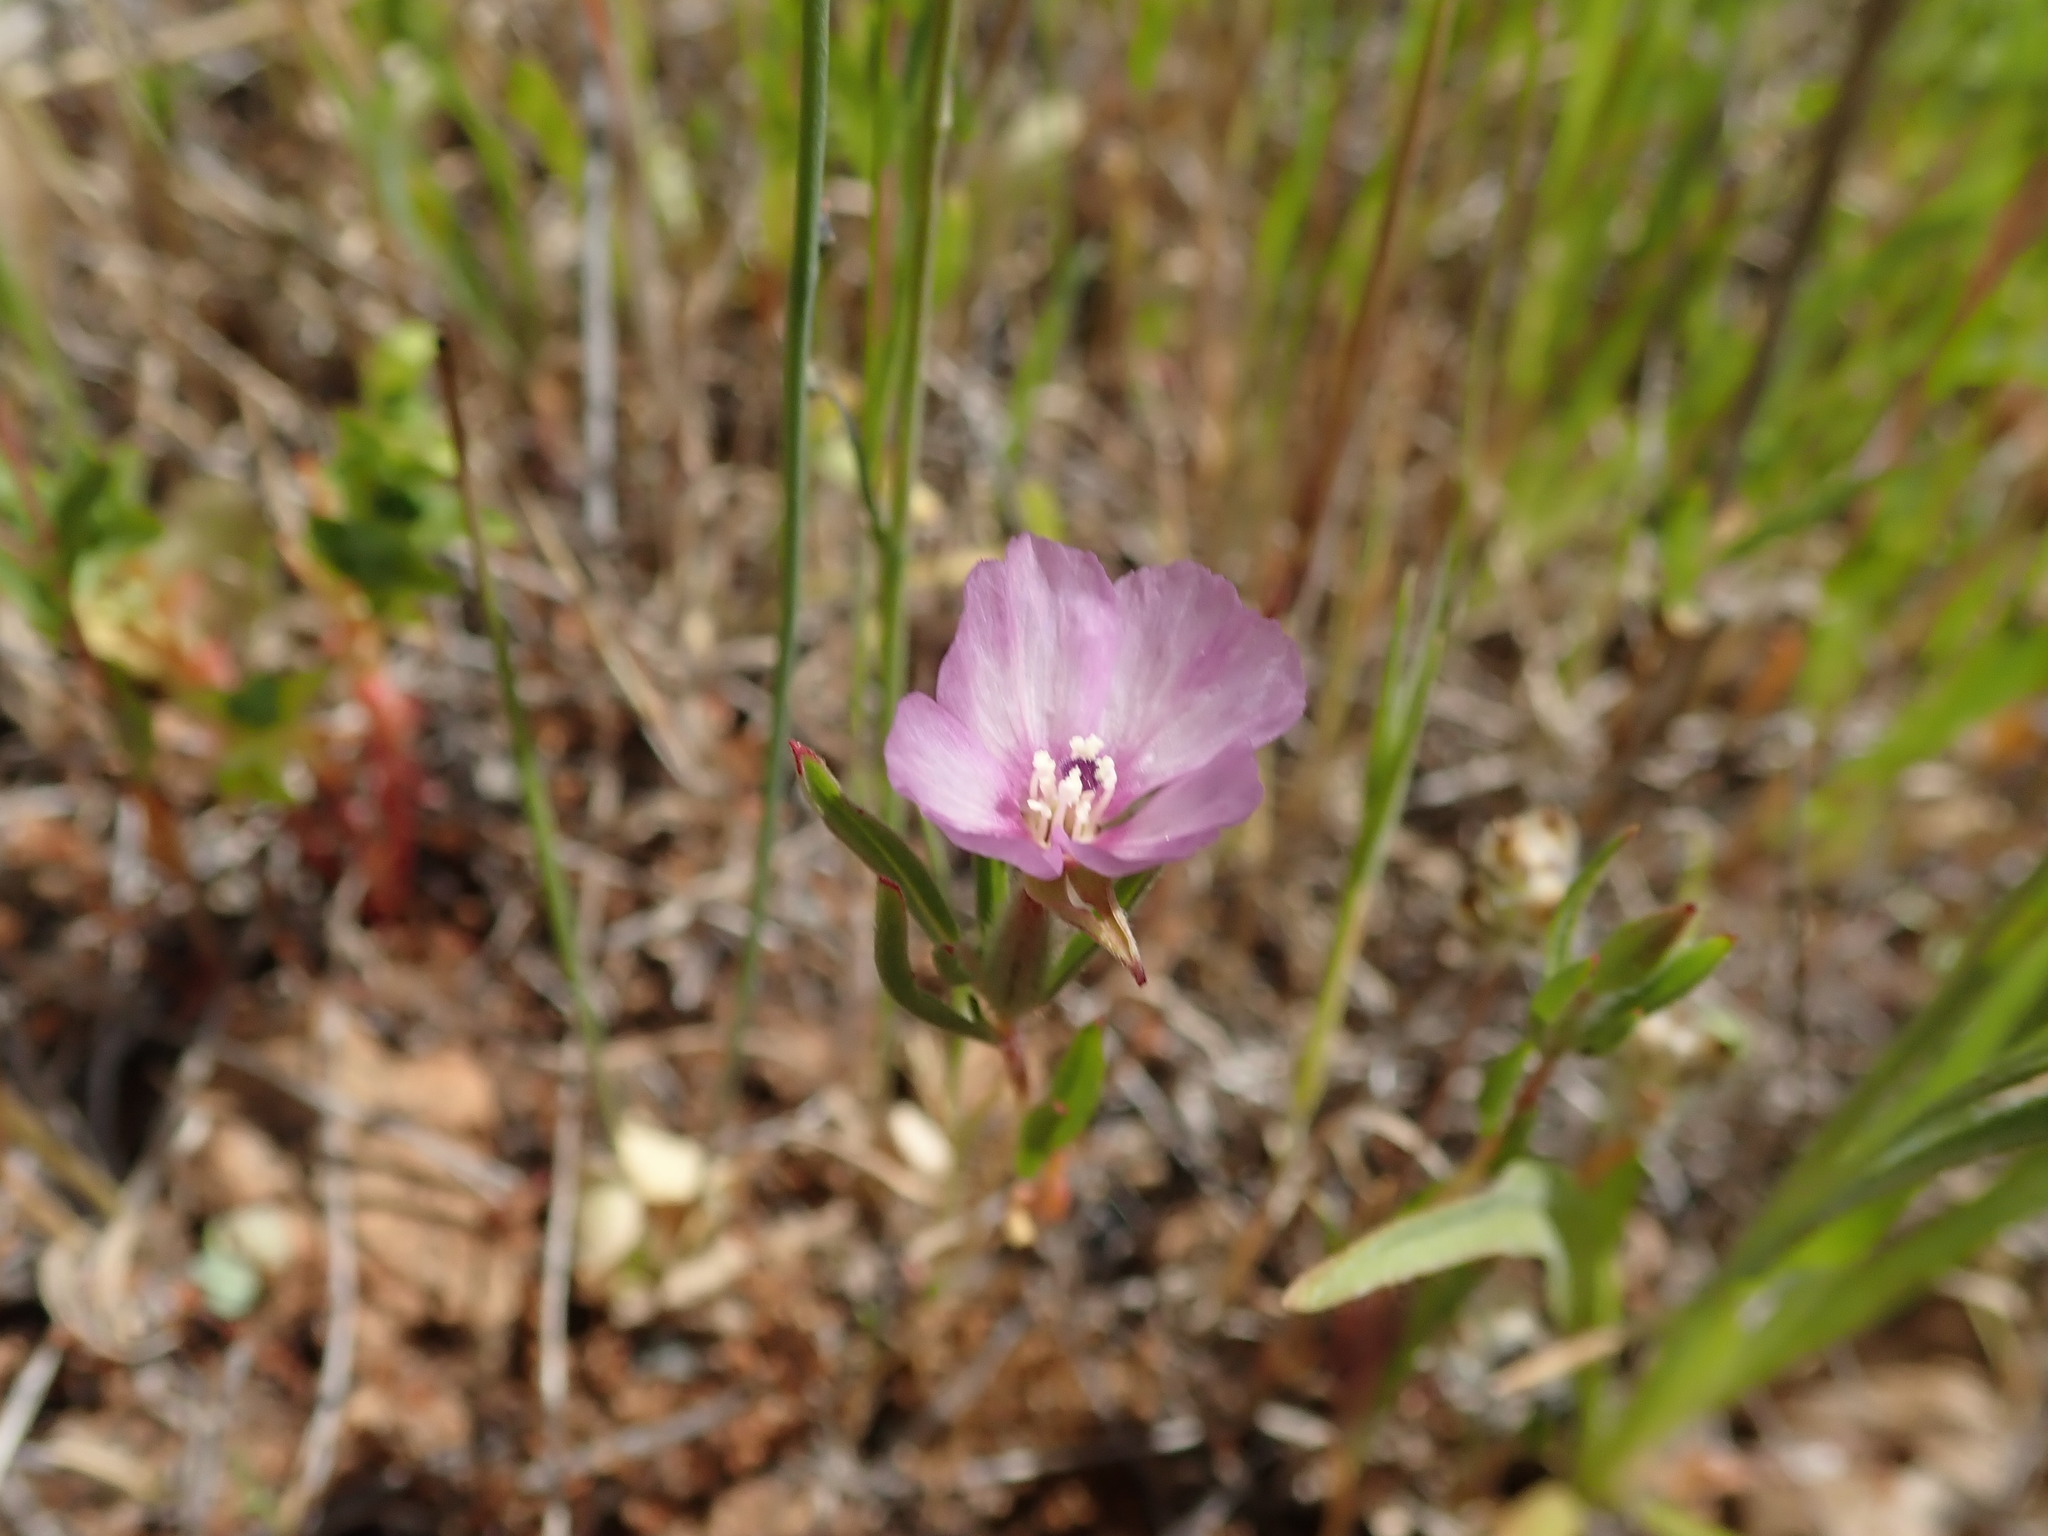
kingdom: Plantae
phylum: Tracheophyta
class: Magnoliopsida
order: Myrtales
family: Onagraceae
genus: Clarkia
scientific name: Clarkia purpurea
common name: Purple clarkia
